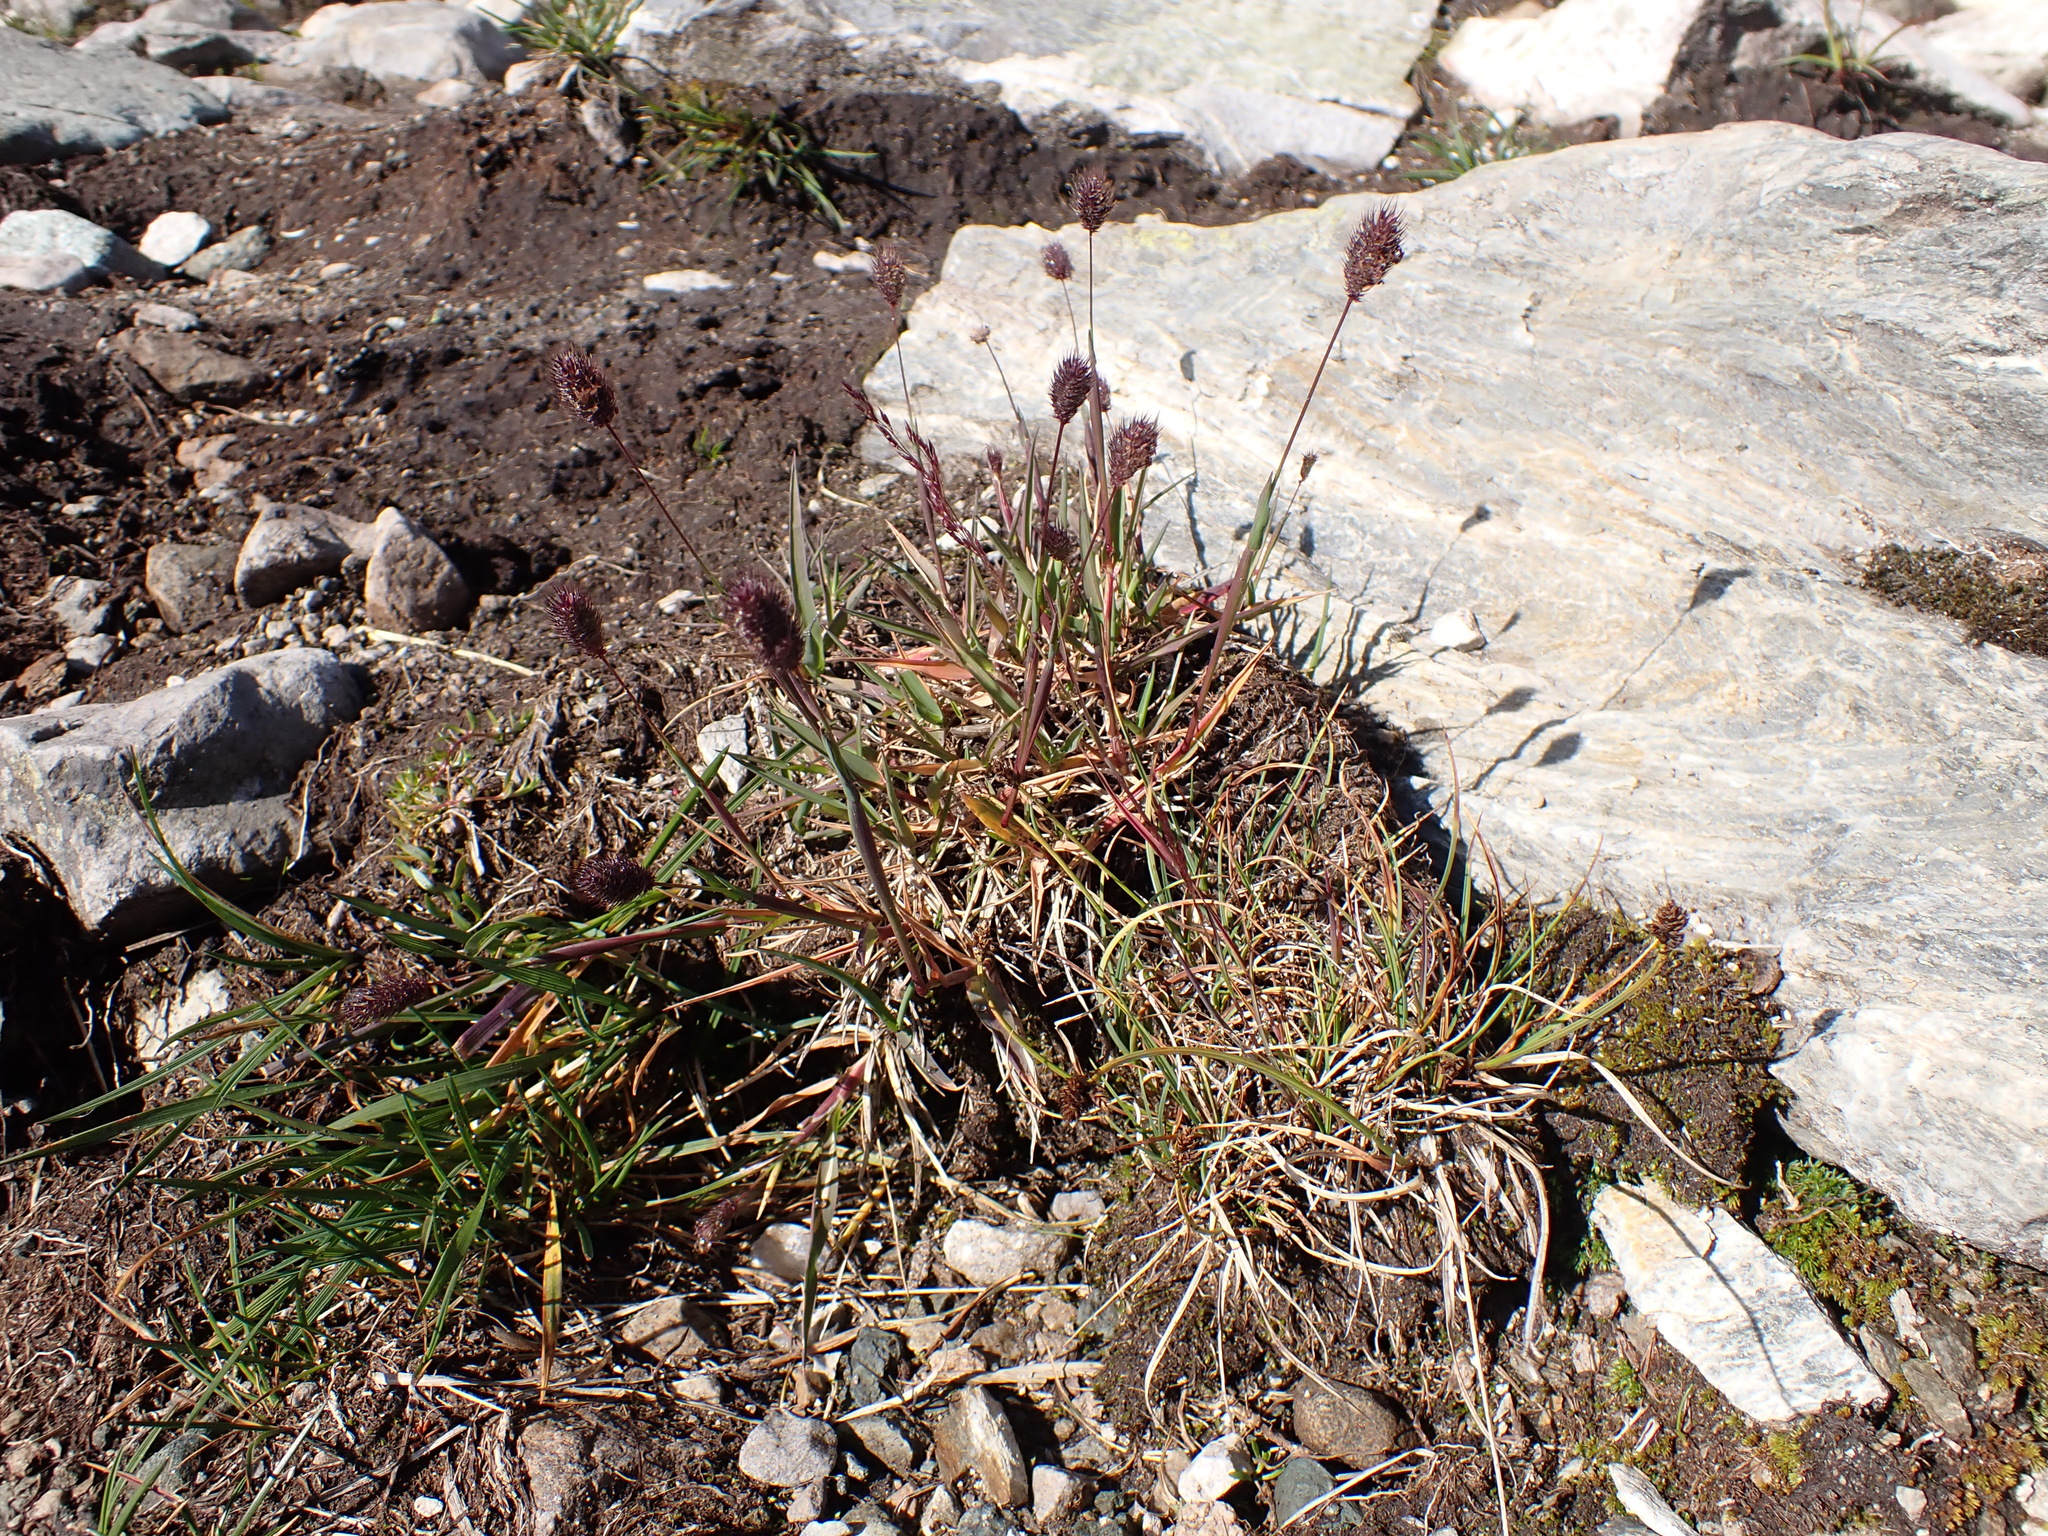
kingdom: Plantae
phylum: Tracheophyta
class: Liliopsida
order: Poales
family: Poaceae
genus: Phleum
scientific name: Phleum alpinum
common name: Alpine cat's-tail
